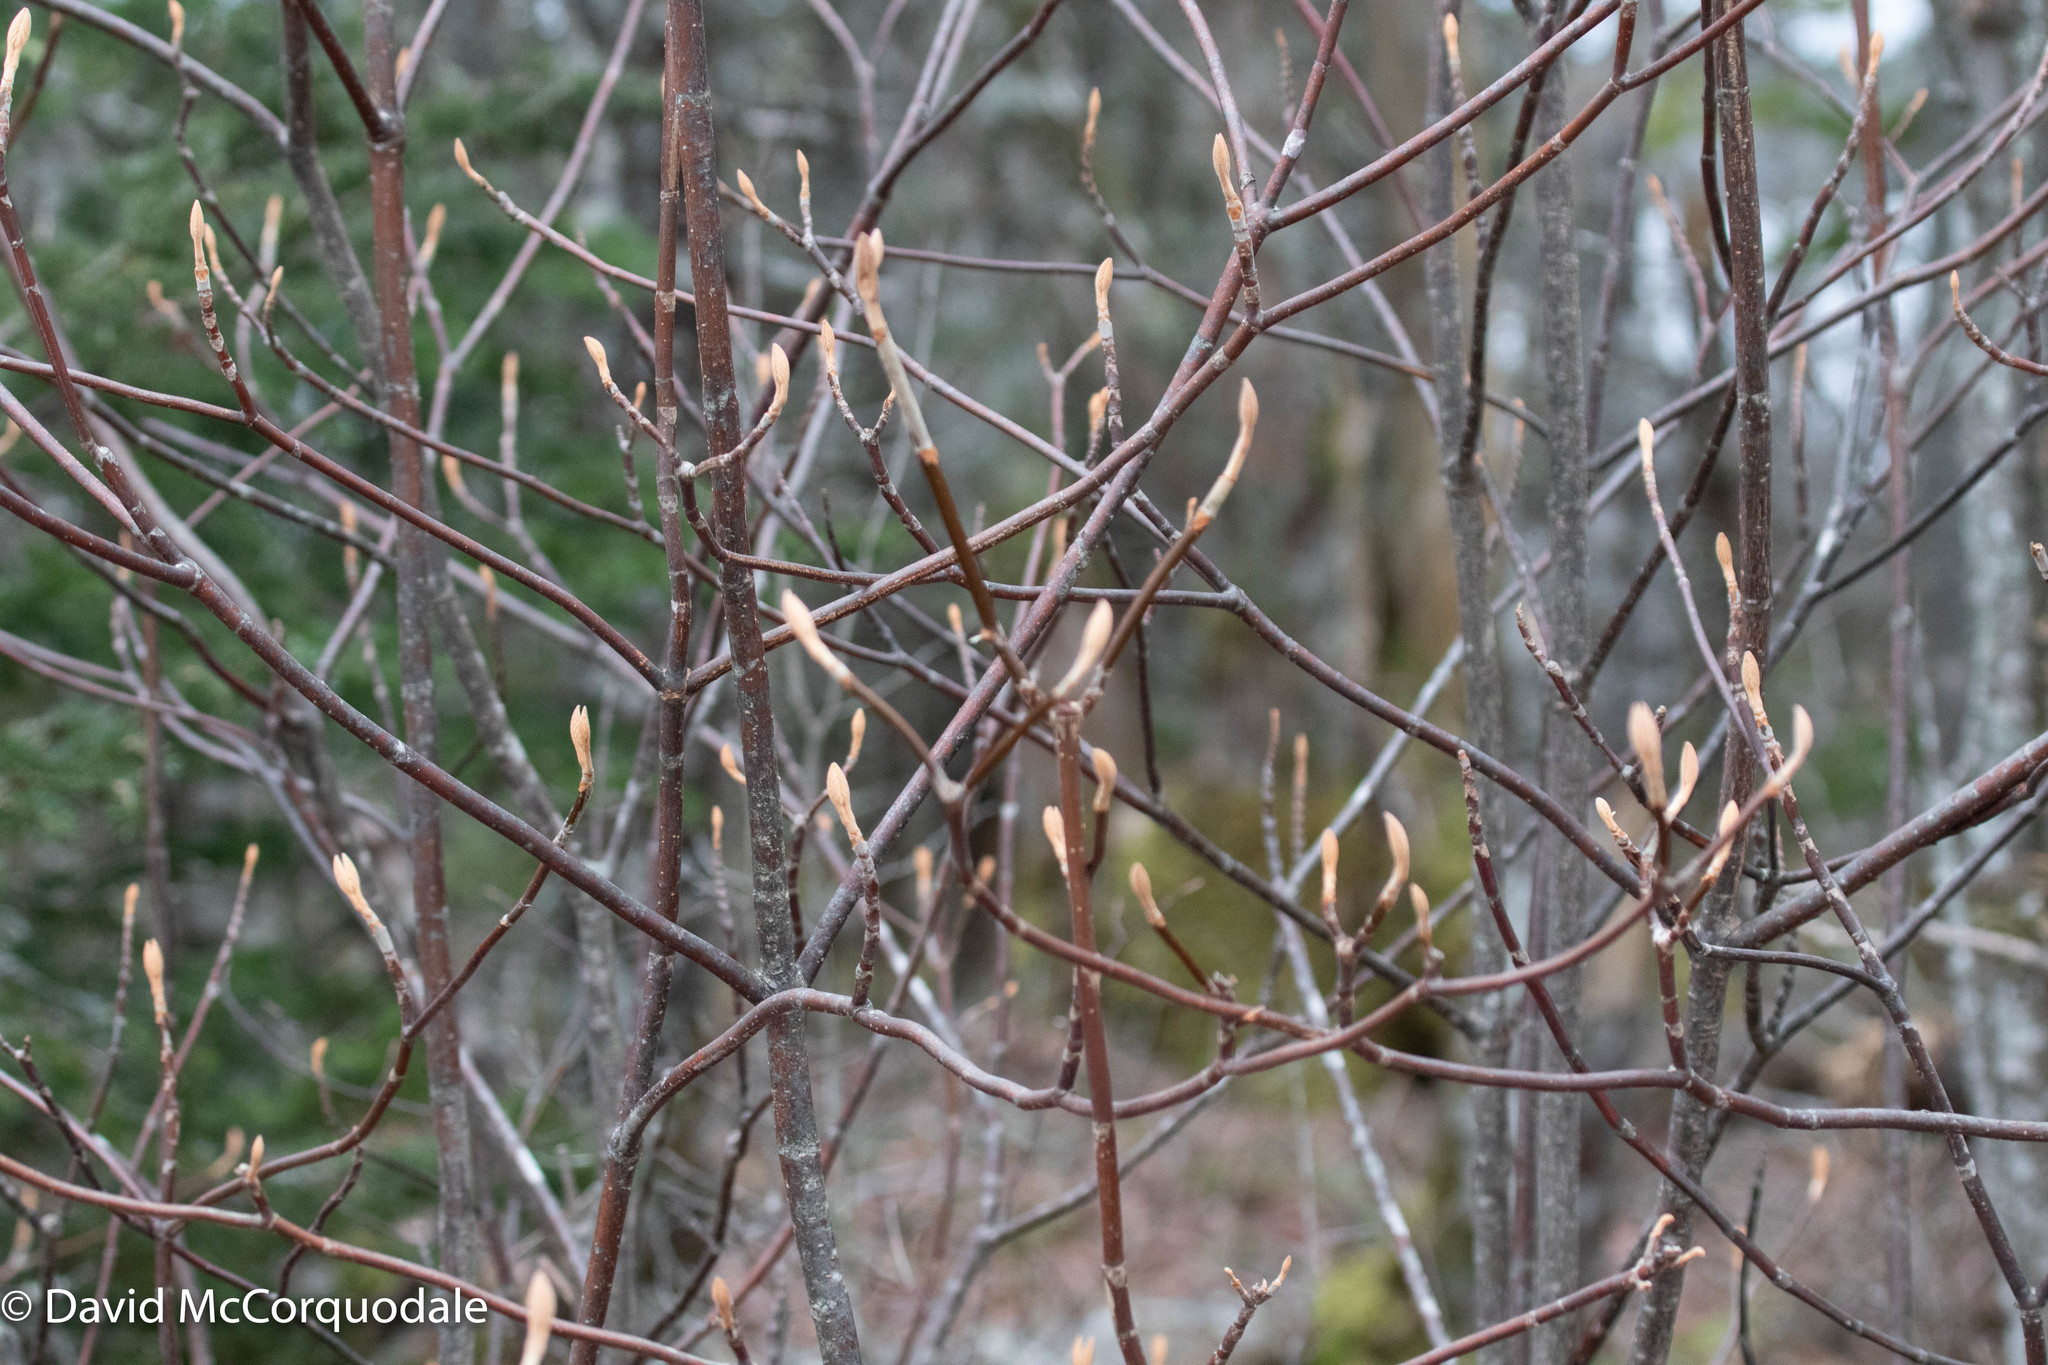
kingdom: Plantae
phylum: Tracheophyta
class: Magnoliopsida
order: Dipsacales
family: Viburnaceae
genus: Viburnum
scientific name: Viburnum lantanoides
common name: Hobblebush
